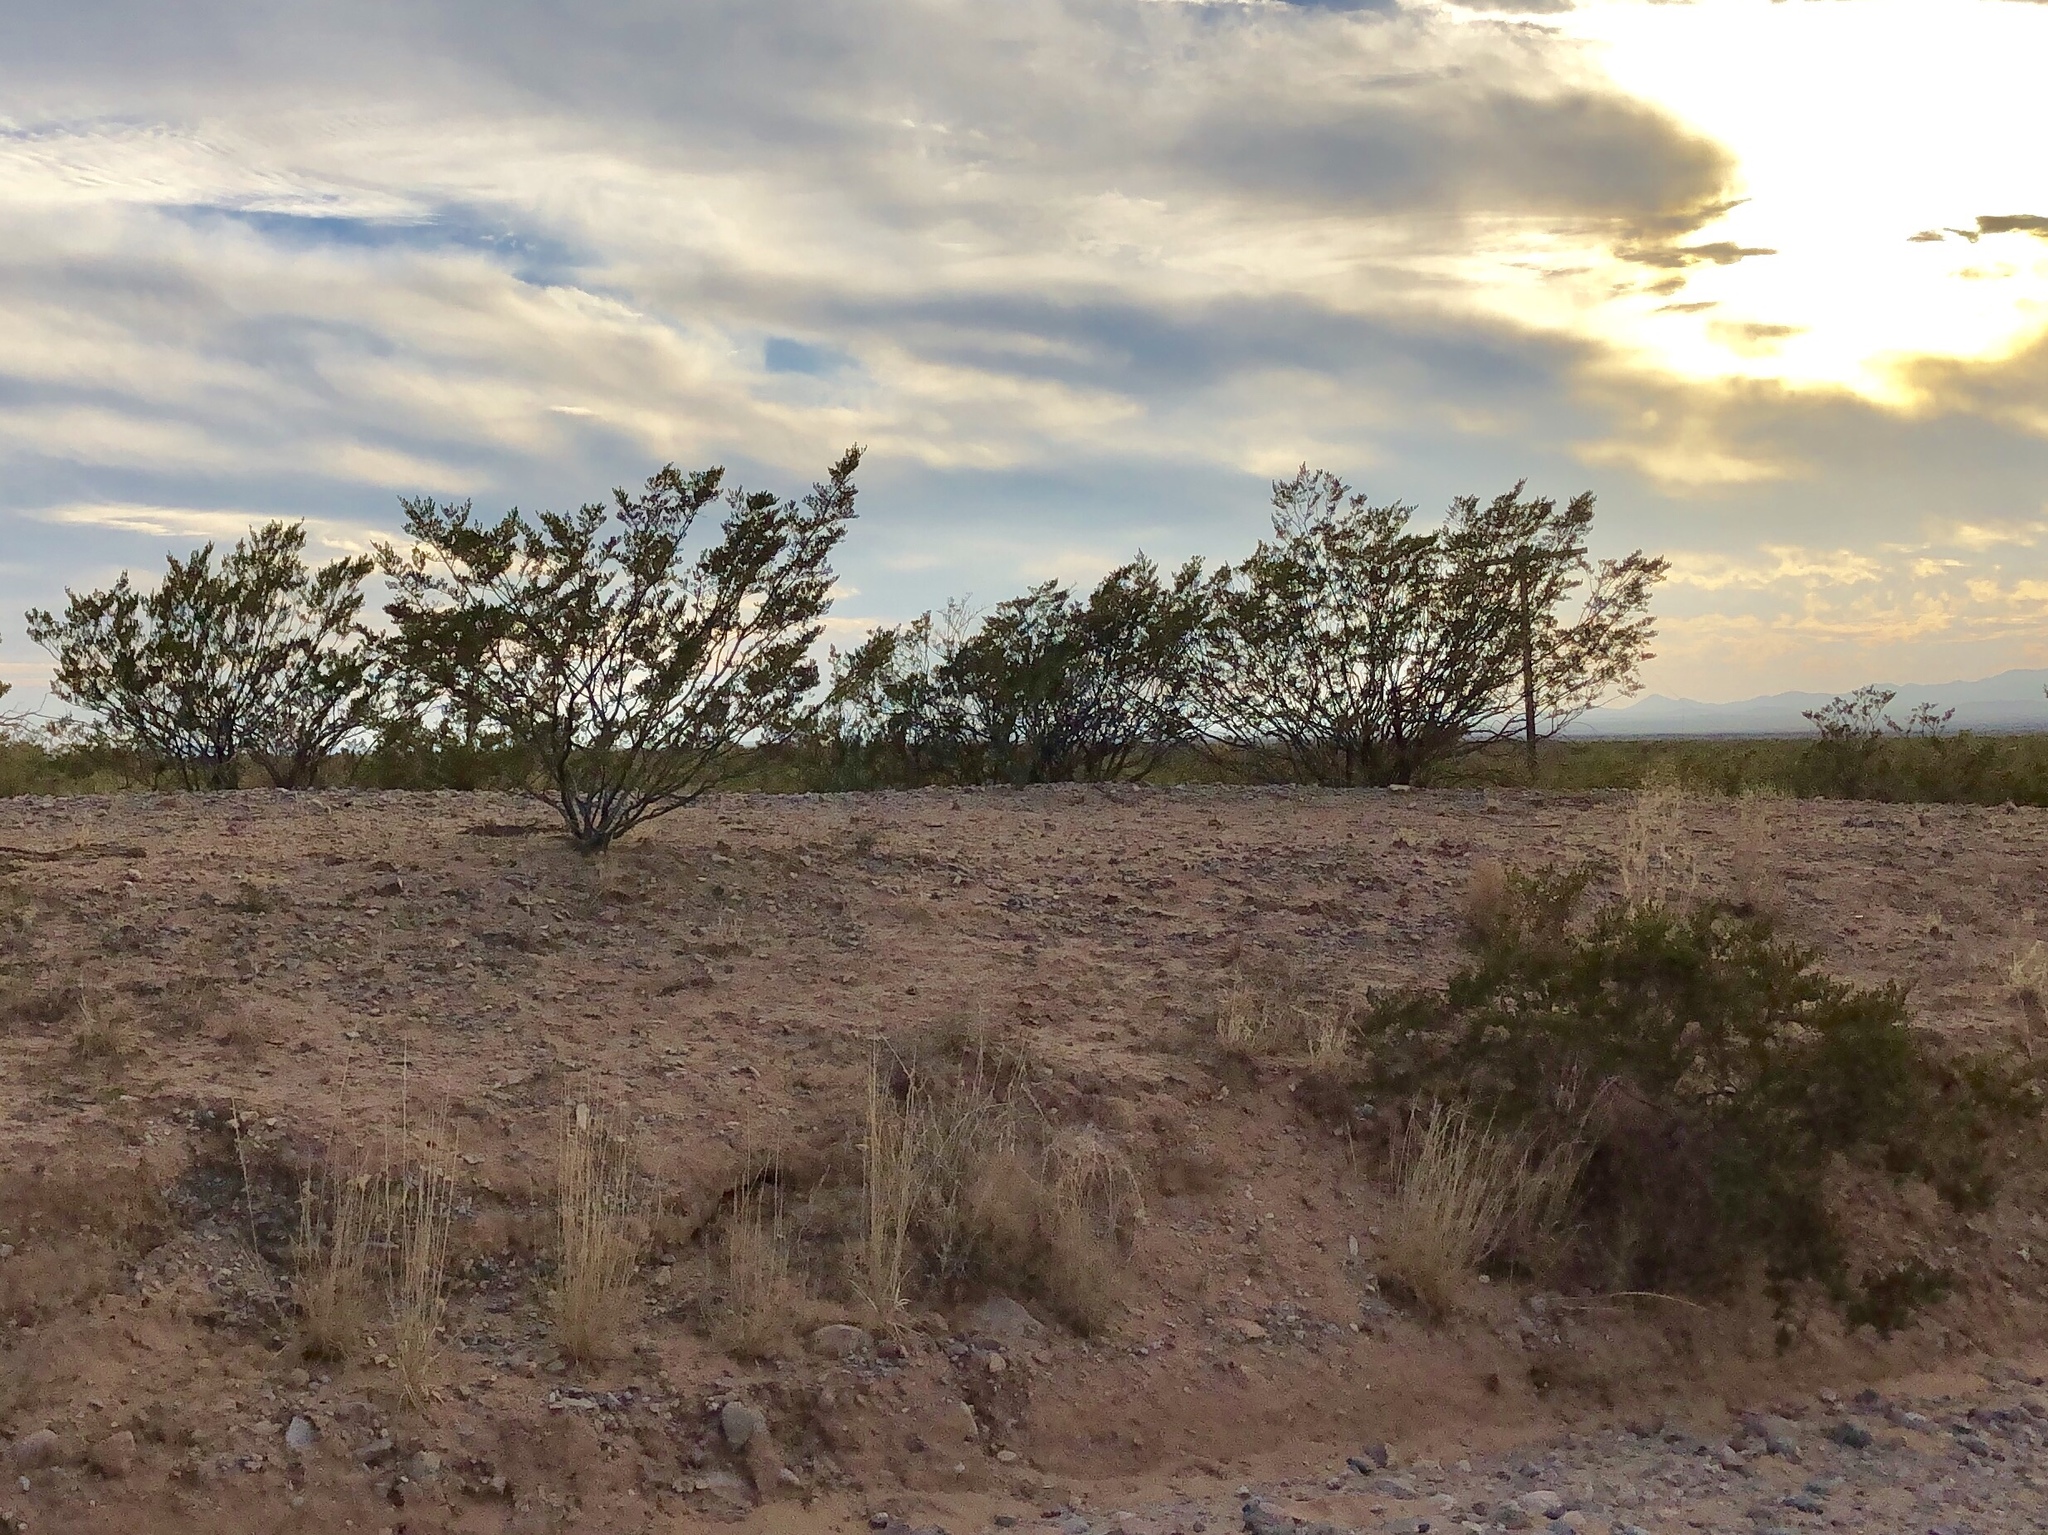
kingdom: Plantae
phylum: Tracheophyta
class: Magnoliopsida
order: Zygophyllales
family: Zygophyllaceae
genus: Larrea
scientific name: Larrea tridentata
